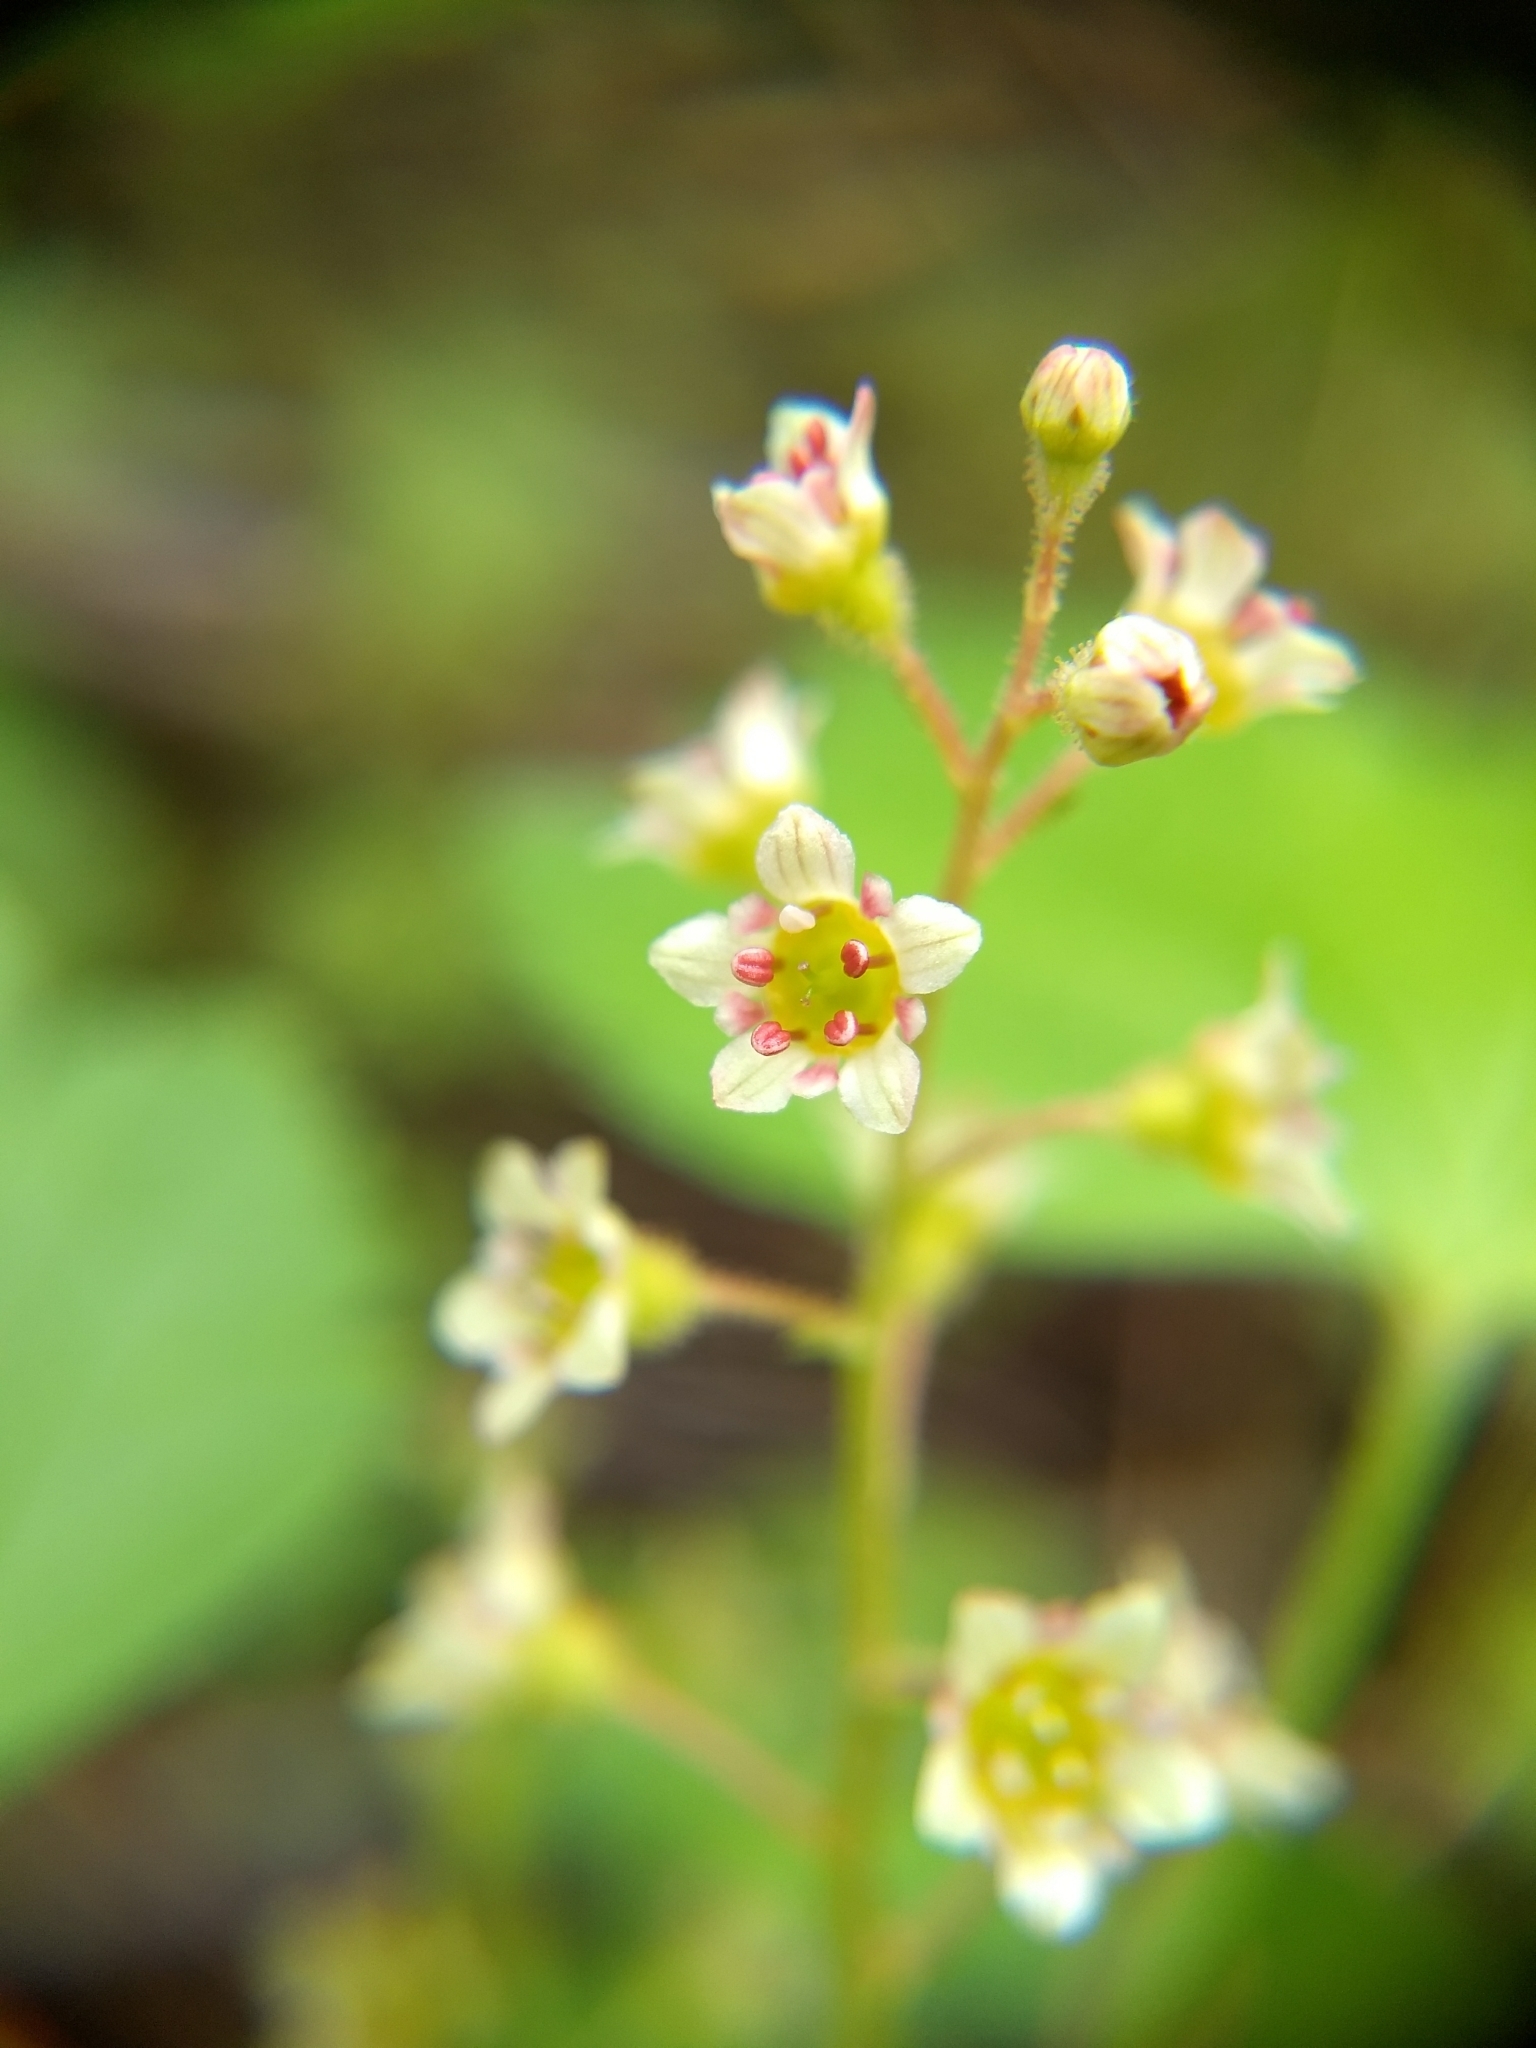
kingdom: Plantae
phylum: Tracheophyta
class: Magnoliopsida
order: Saxifragales
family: Grossulariaceae
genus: Ribes
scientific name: Ribes glandulosum
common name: Skunk currant
